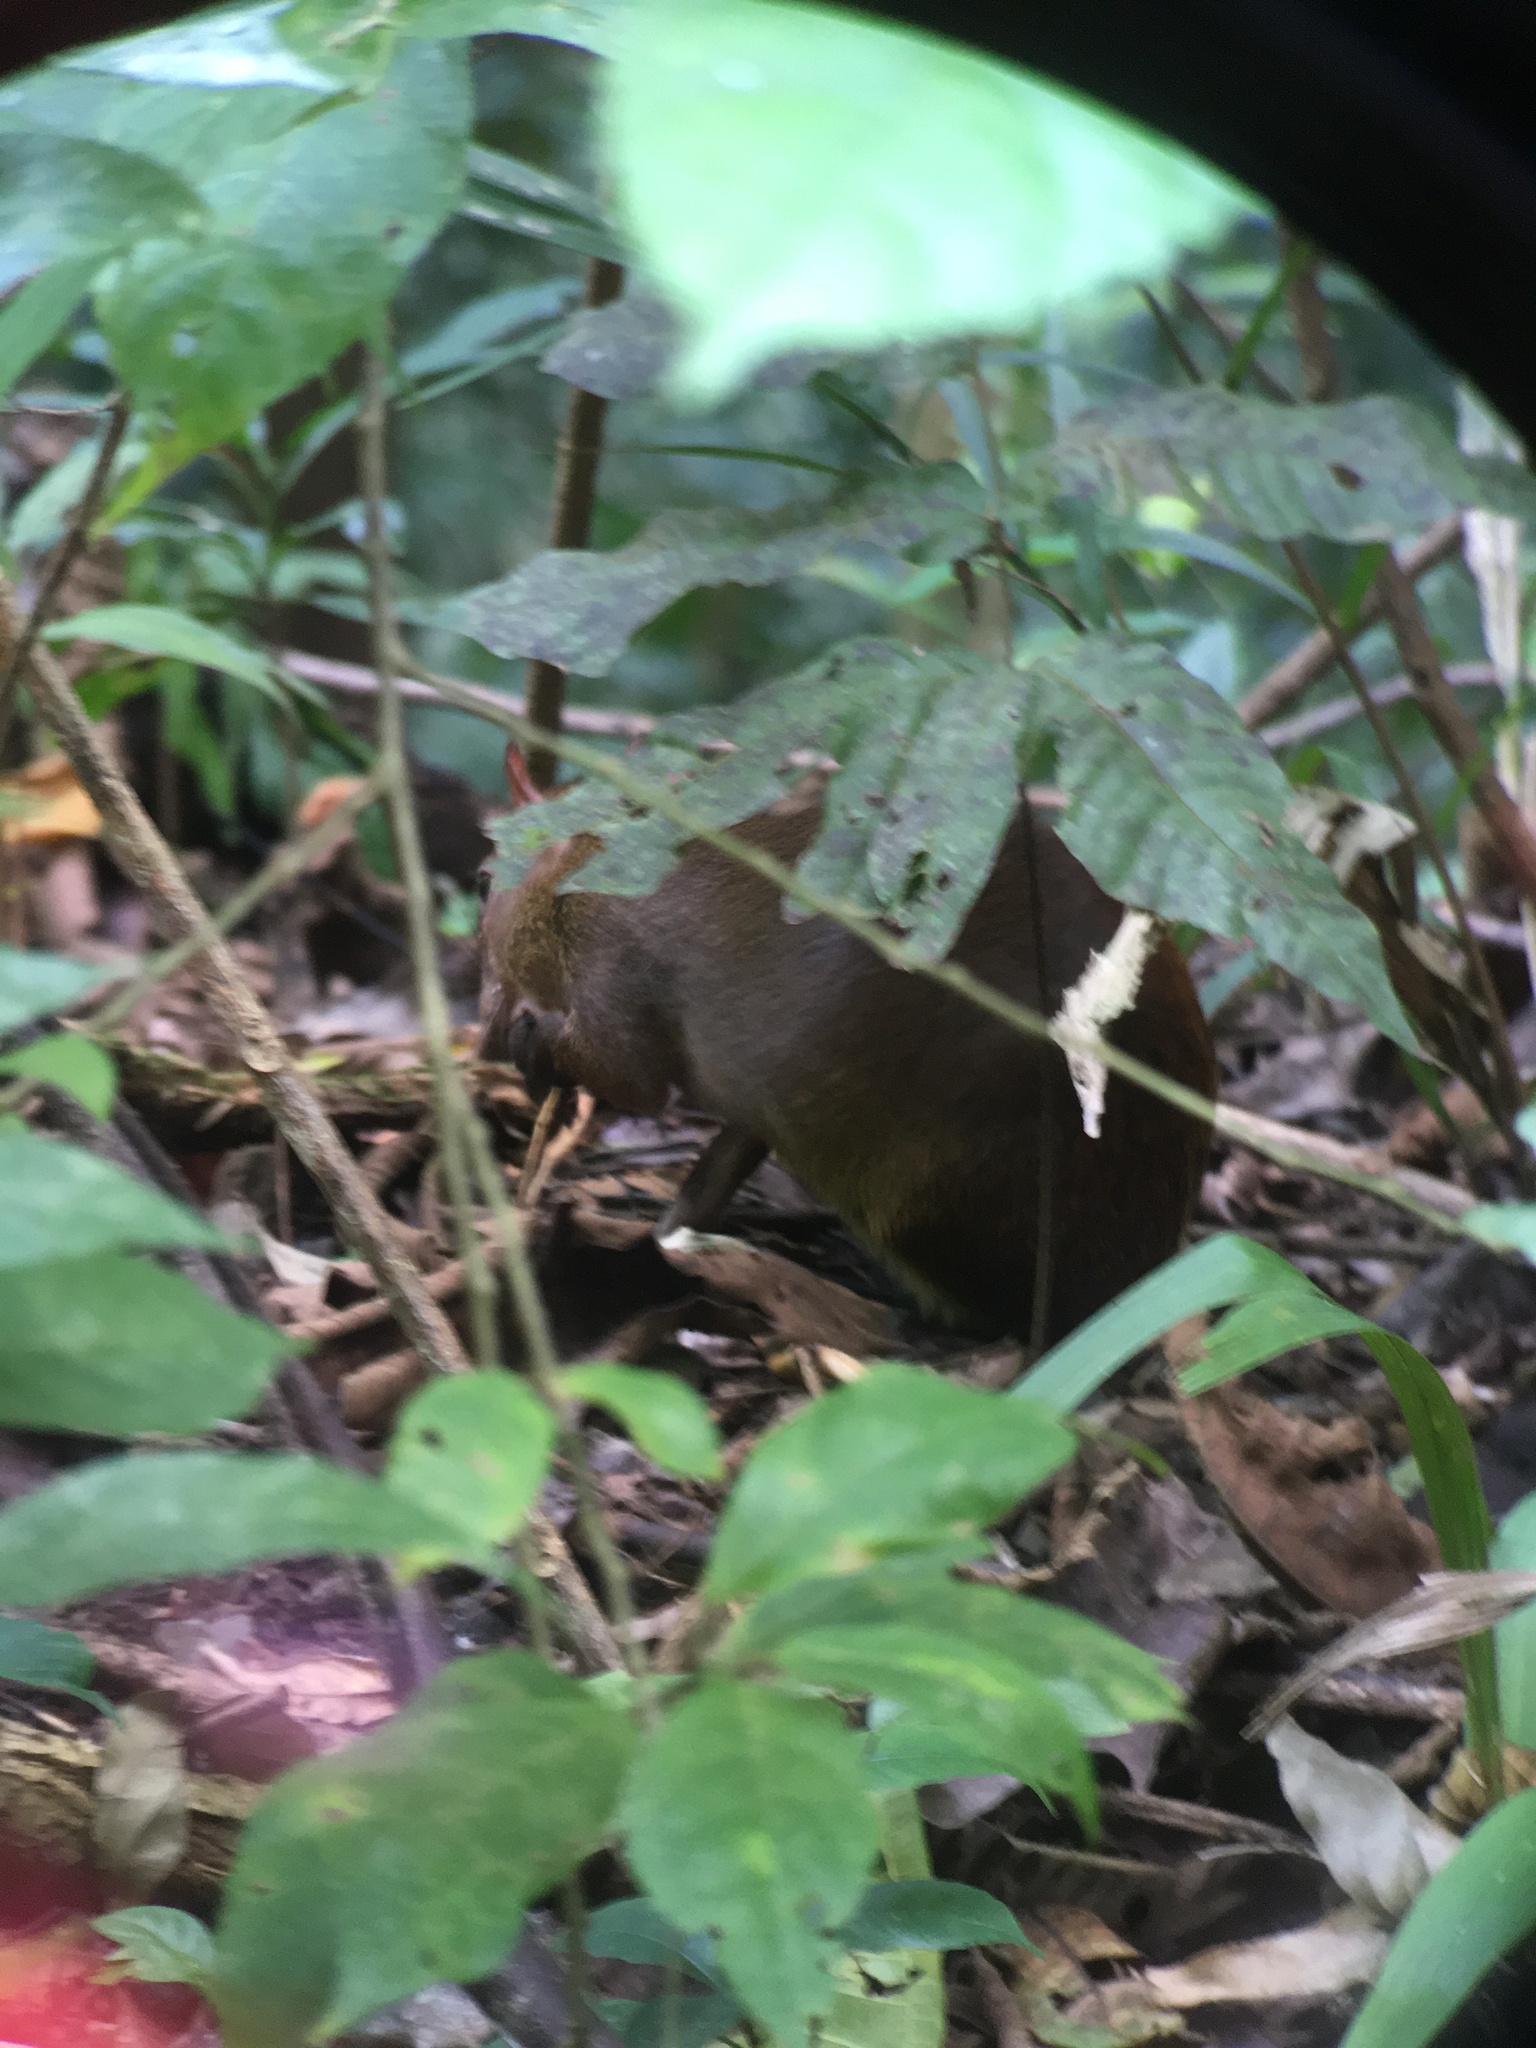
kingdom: Animalia
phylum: Chordata
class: Mammalia
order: Rodentia
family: Dasyproctidae
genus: Dasyprocta
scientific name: Dasyprocta punctata
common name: Central american agouti
